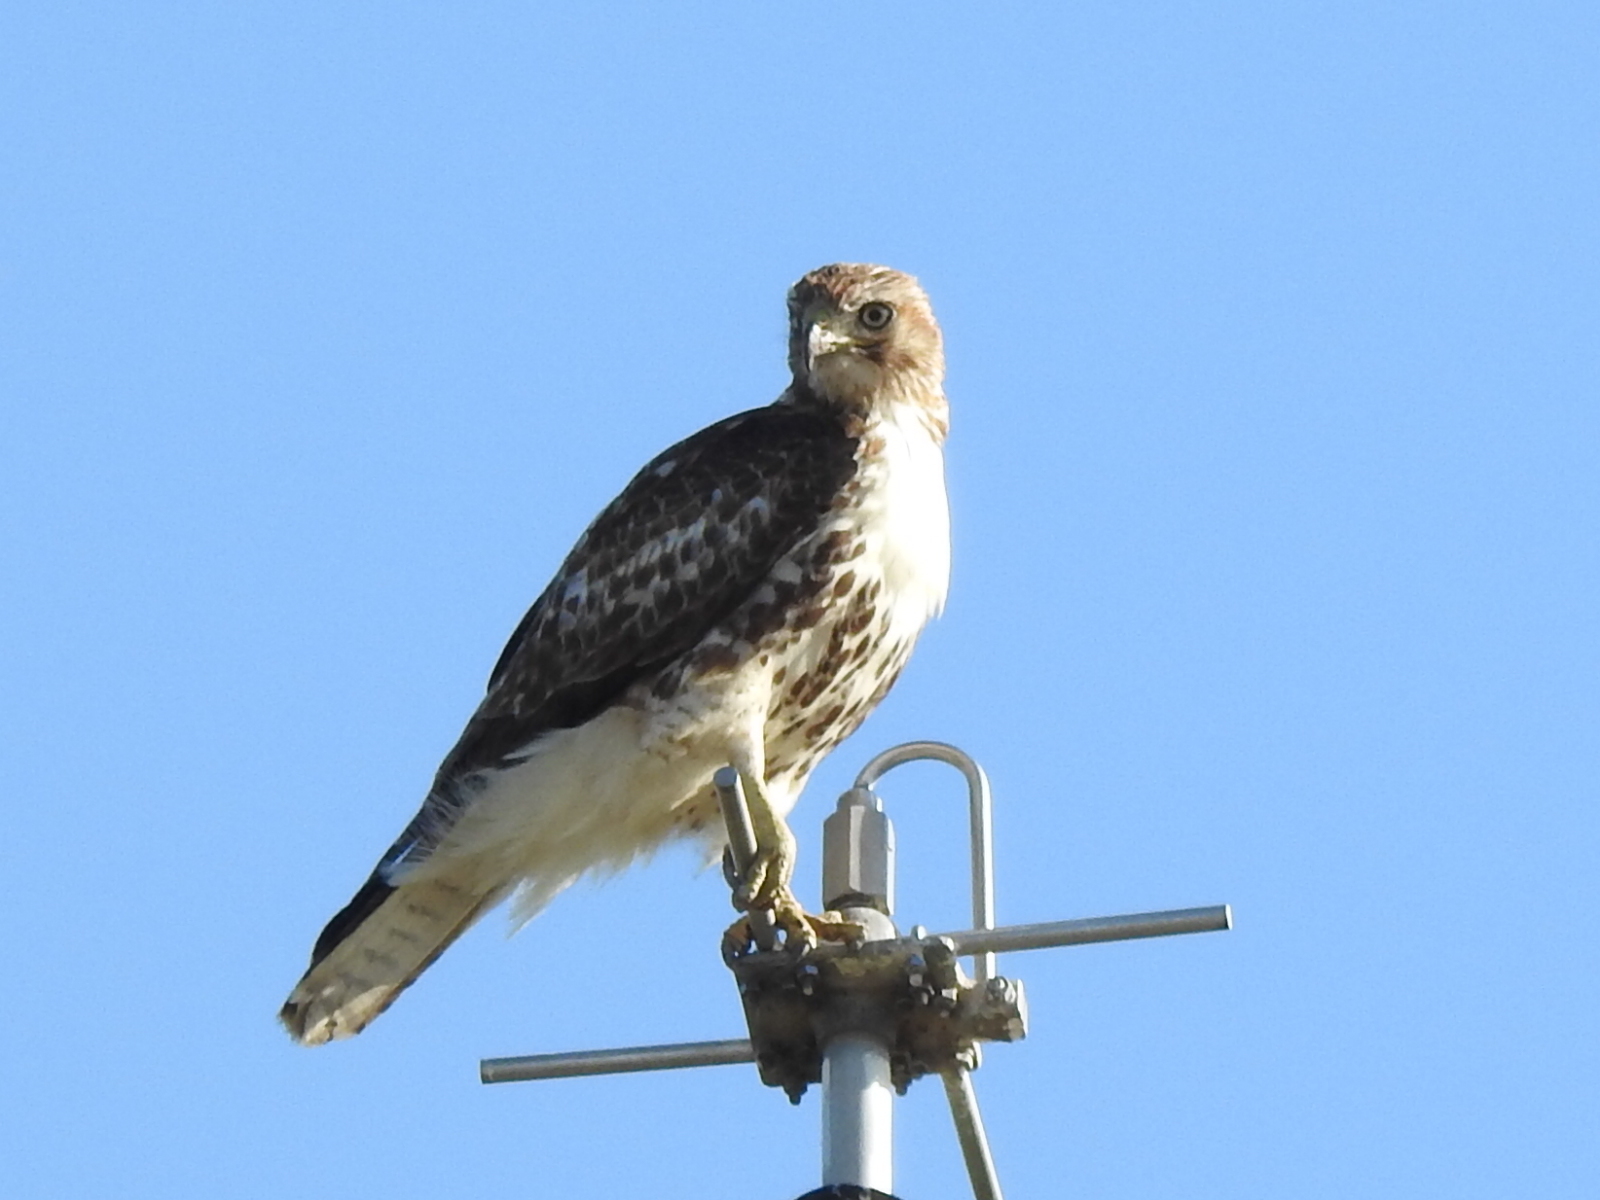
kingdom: Animalia
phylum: Chordata
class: Aves
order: Accipitriformes
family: Accipitridae
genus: Buteo
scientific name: Buteo jamaicensis
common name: Red-tailed hawk
